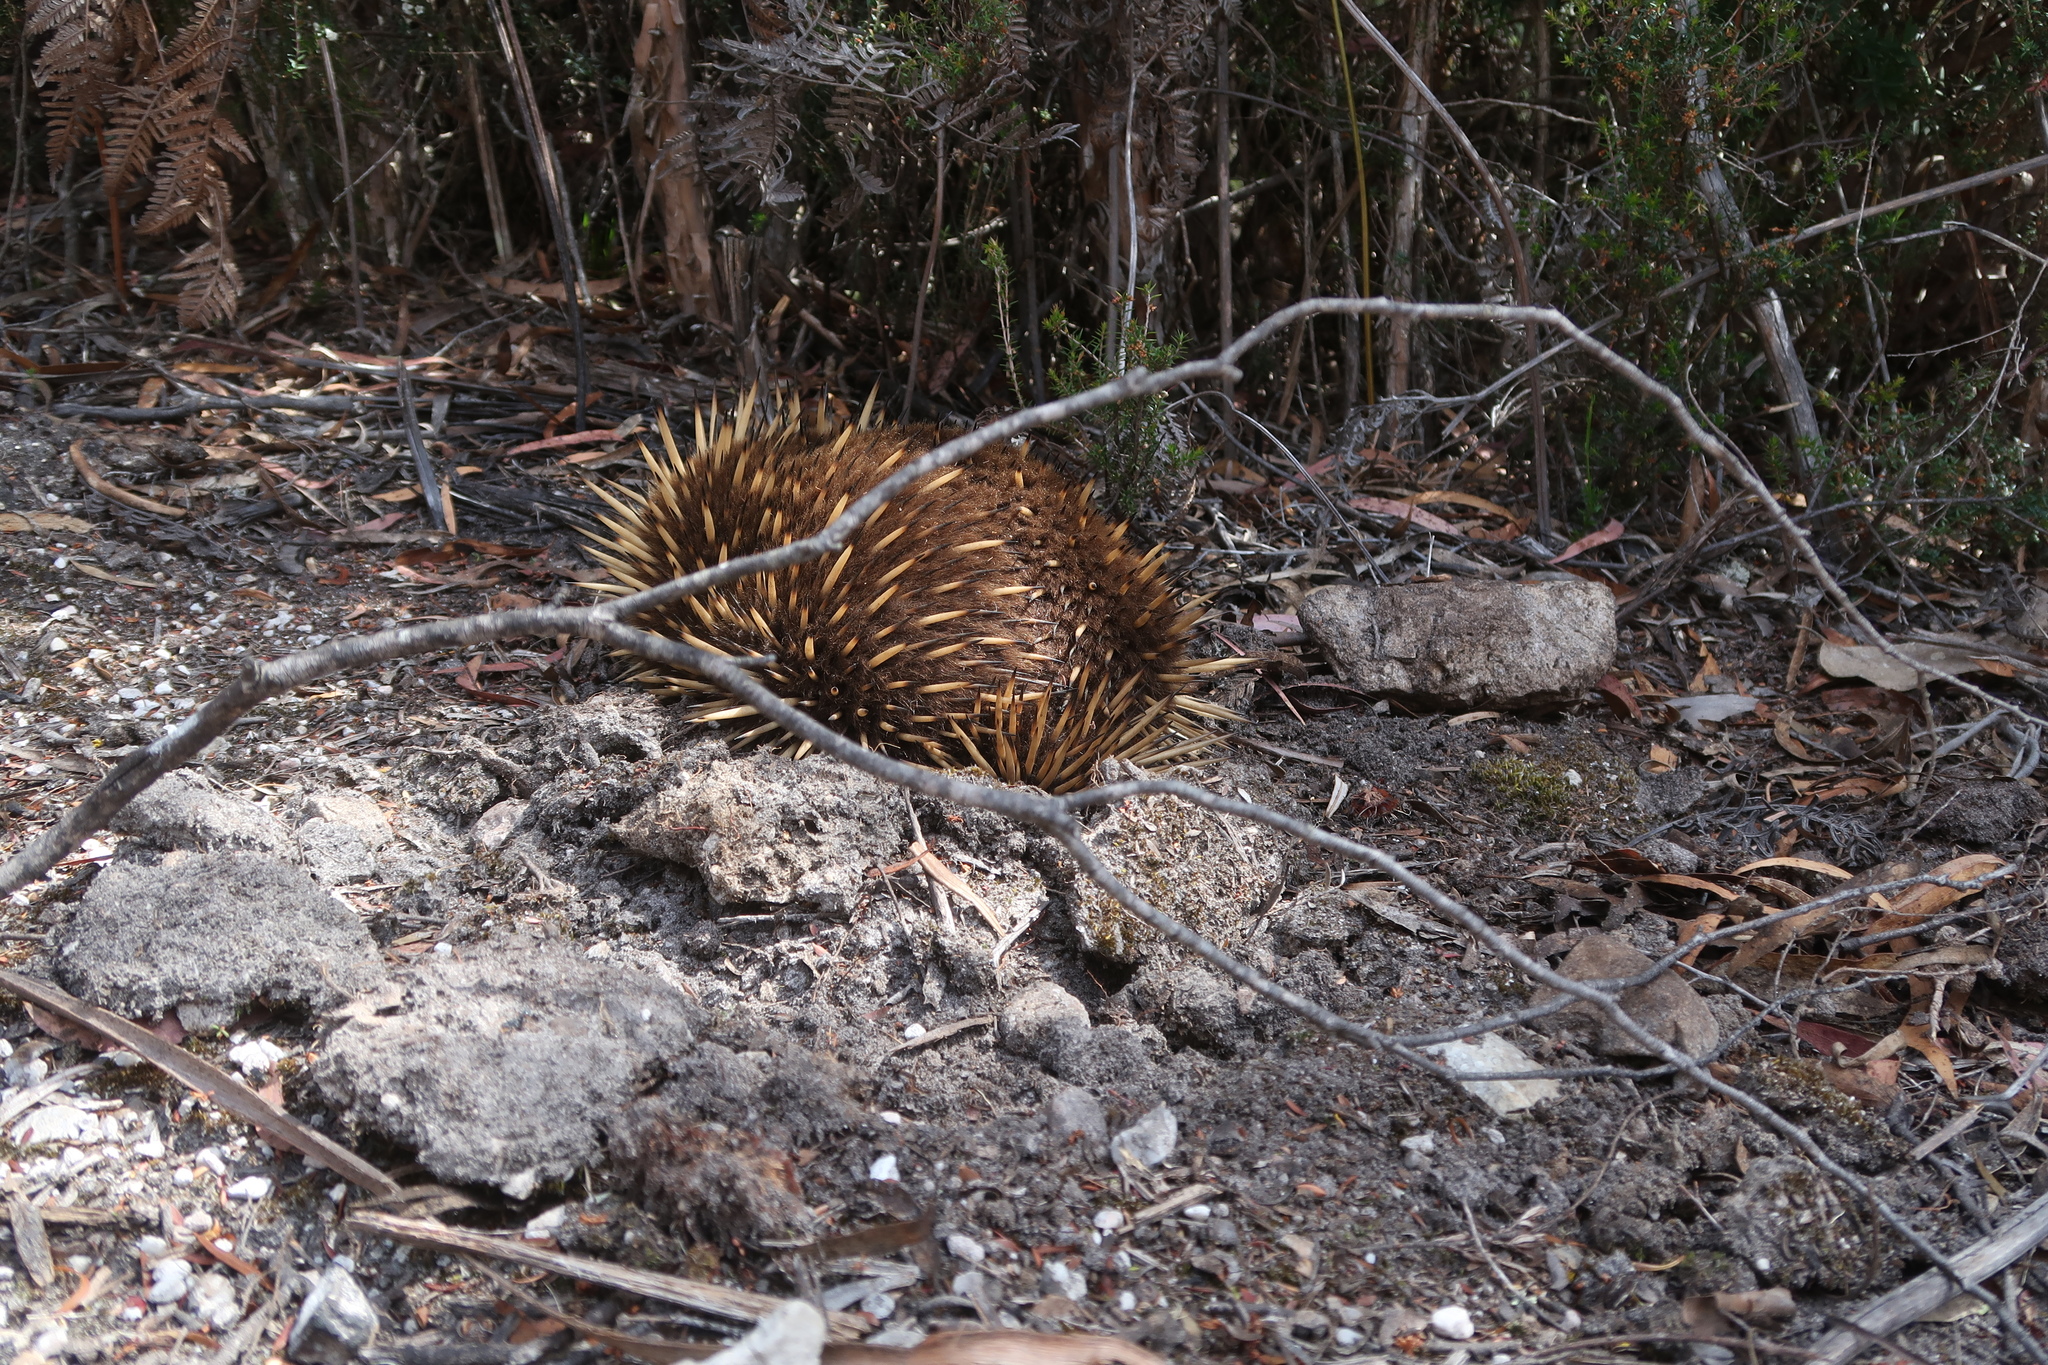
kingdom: Animalia
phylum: Chordata
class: Mammalia
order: Monotremata
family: Tachyglossidae
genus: Tachyglossus
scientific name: Tachyglossus aculeatus
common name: Short-beaked echidna
